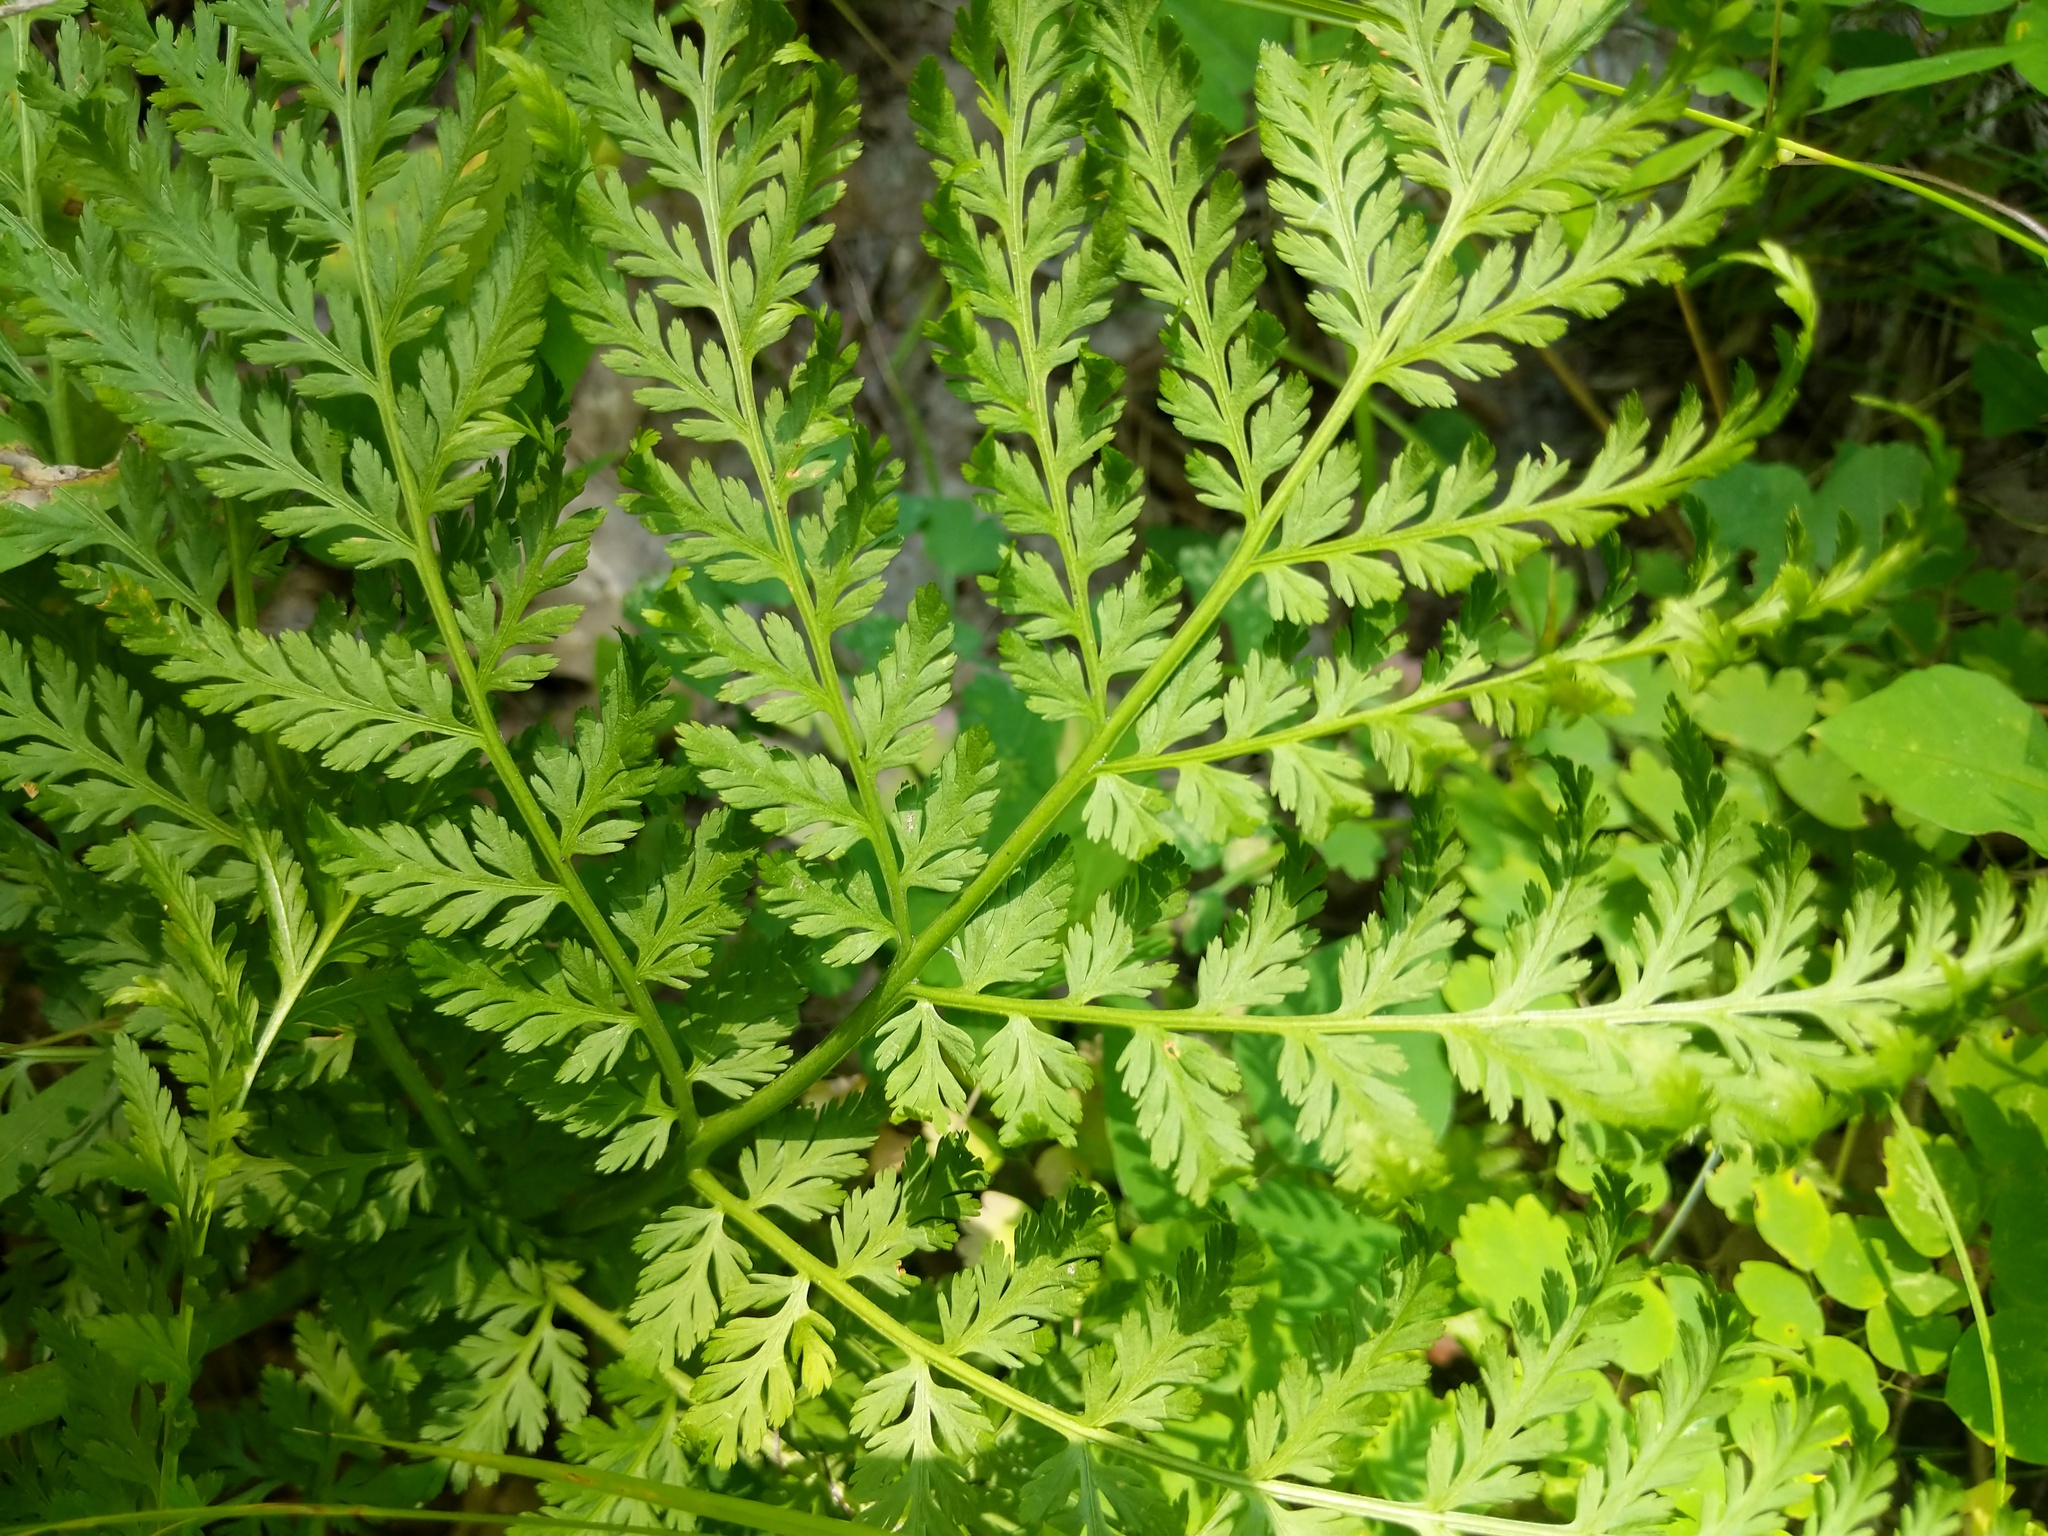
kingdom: Plantae
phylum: Tracheophyta
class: Polypodiopsida
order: Ophioglossales
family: Ophioglossaceae
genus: Botrypus
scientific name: Botrypus virginianus
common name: Common grapefern
